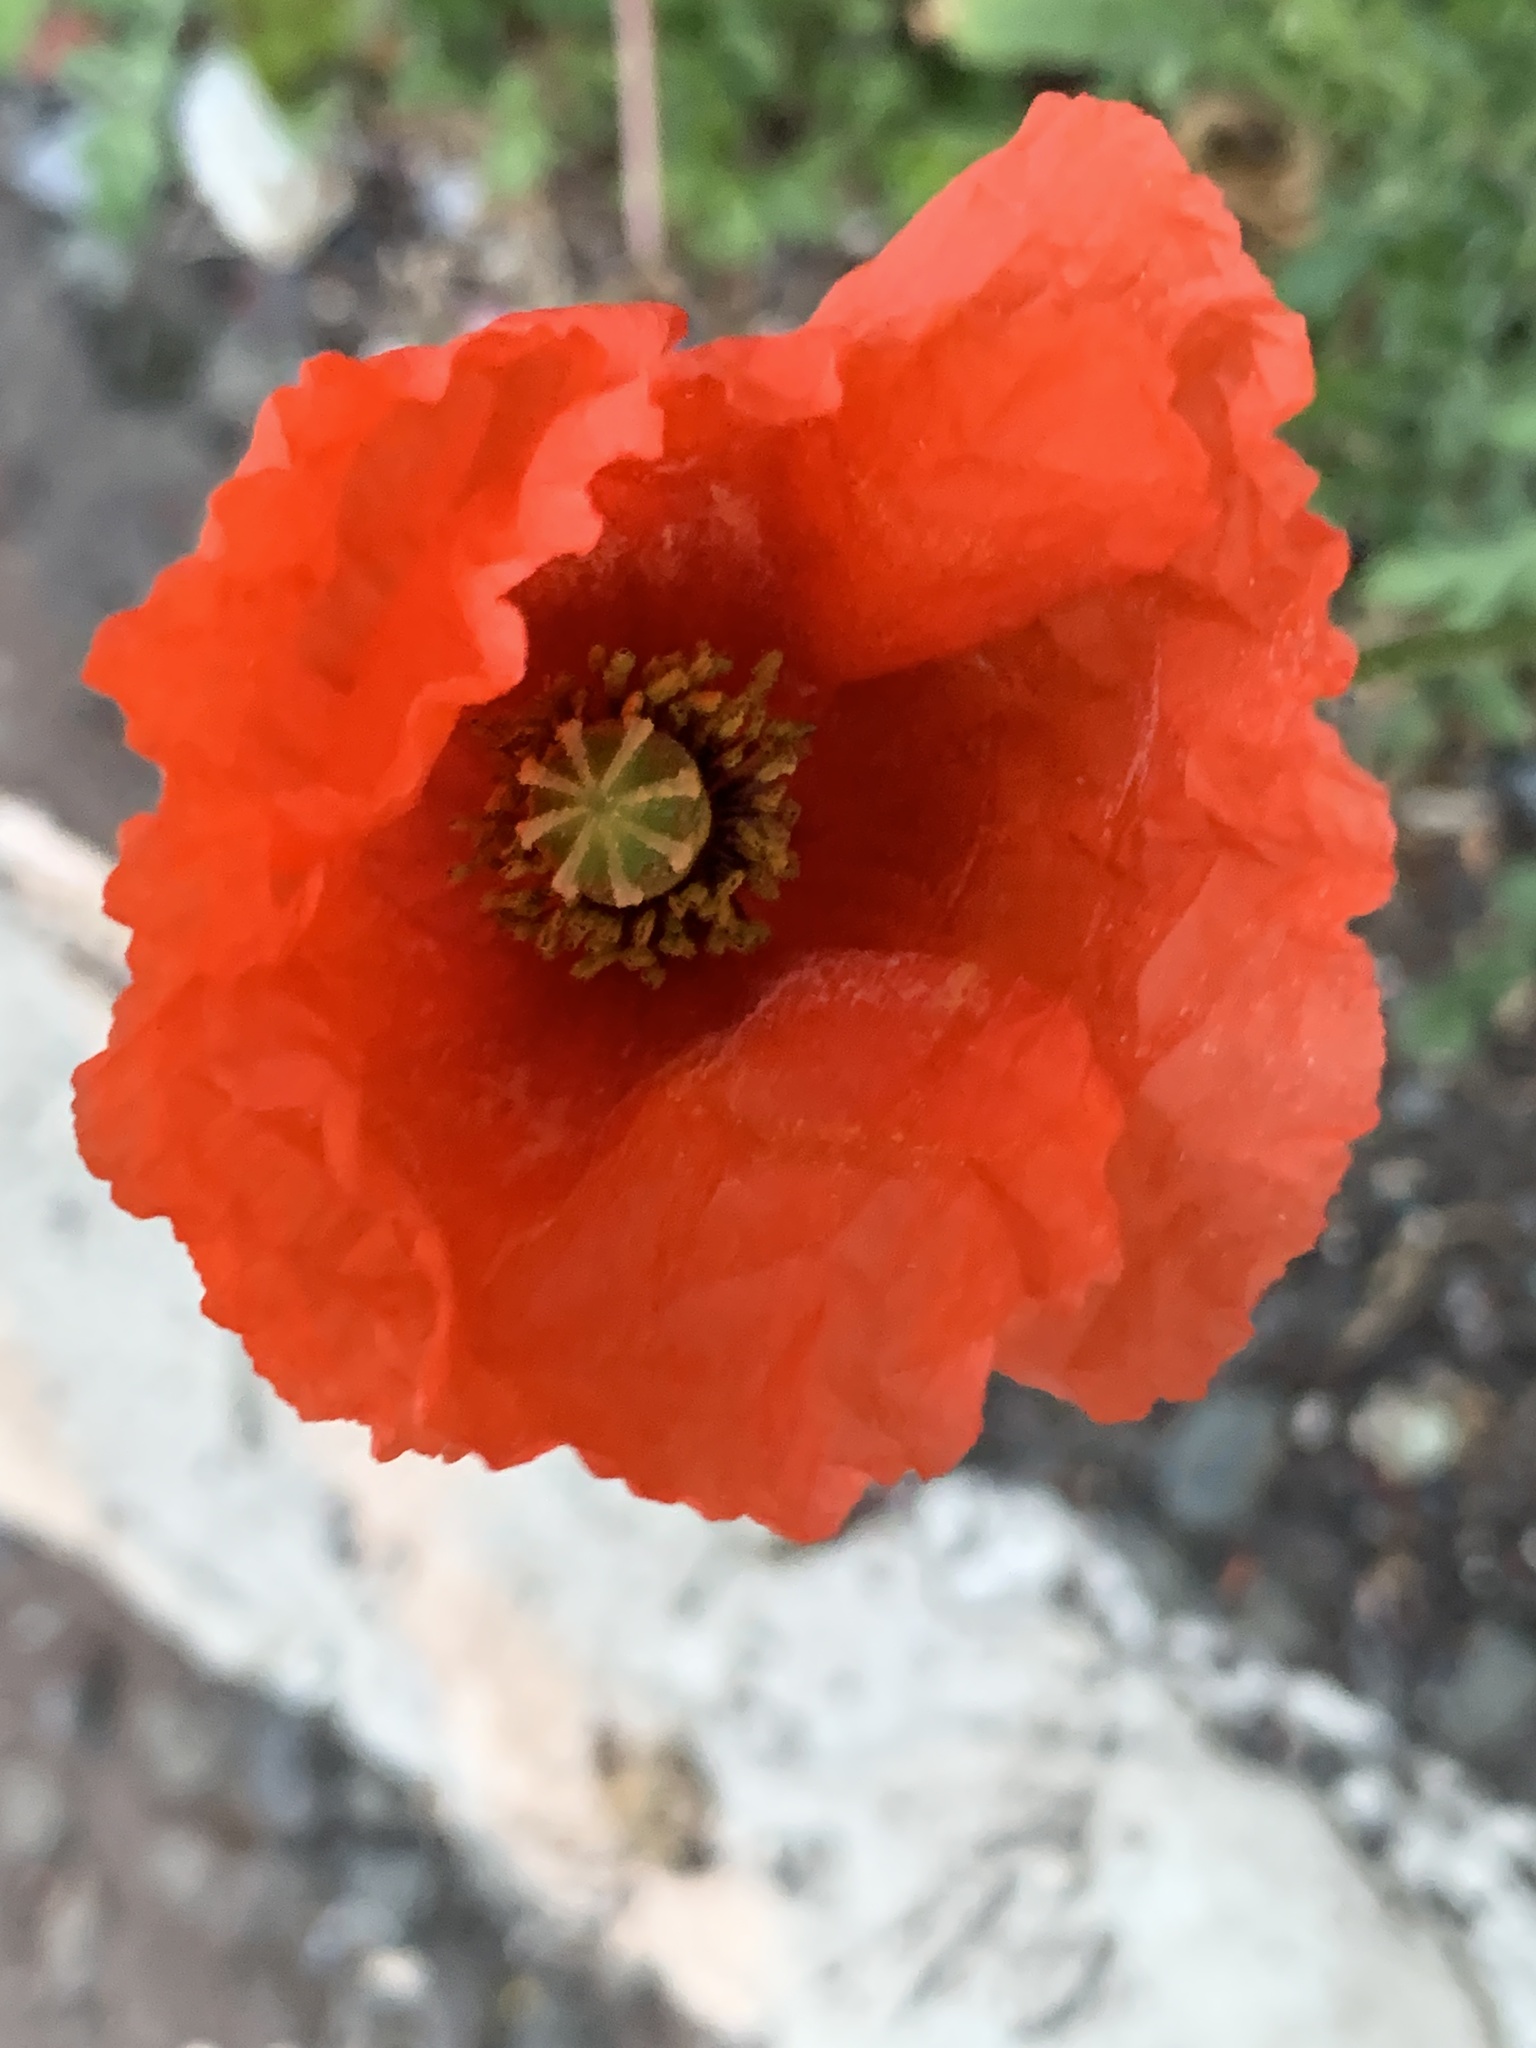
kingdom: Plantae
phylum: Tracheophyta
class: Magnoliopsida
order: Ranunculales
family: Papaveraceae
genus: Papaver
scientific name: Papaver rhoeas
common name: Corn poppy
